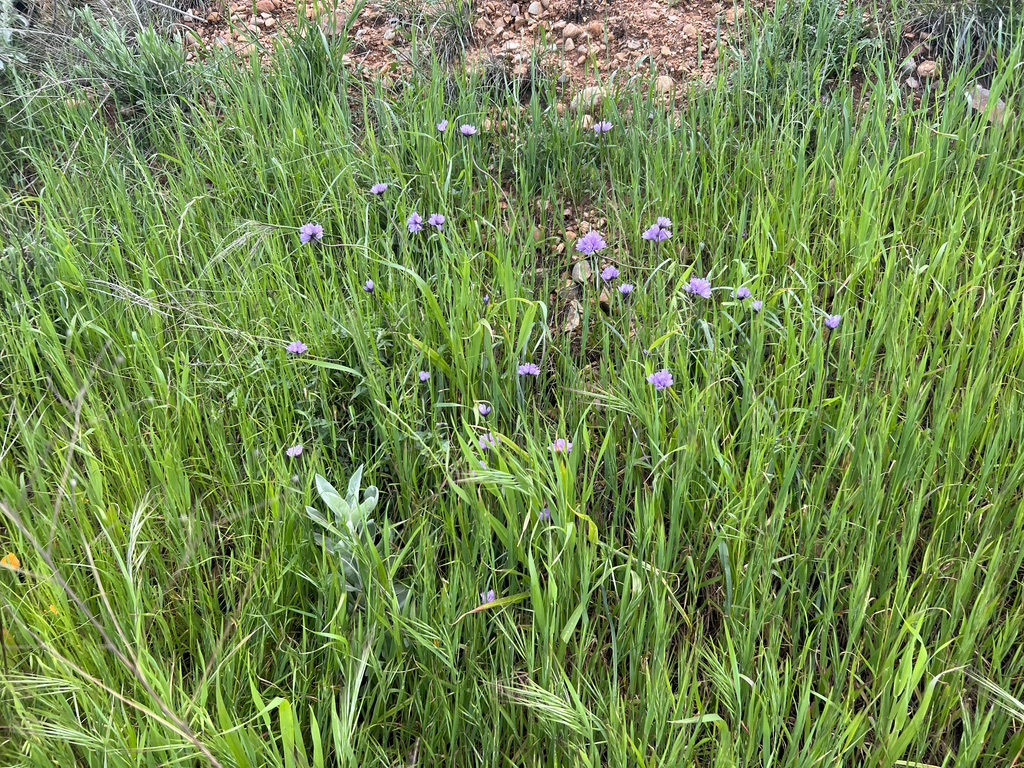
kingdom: Plantae
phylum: Tracheophyta
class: Liliopsida
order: Asparagales
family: Asparagaceae
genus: Dipterostemon
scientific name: Dipterostemon capitatus
